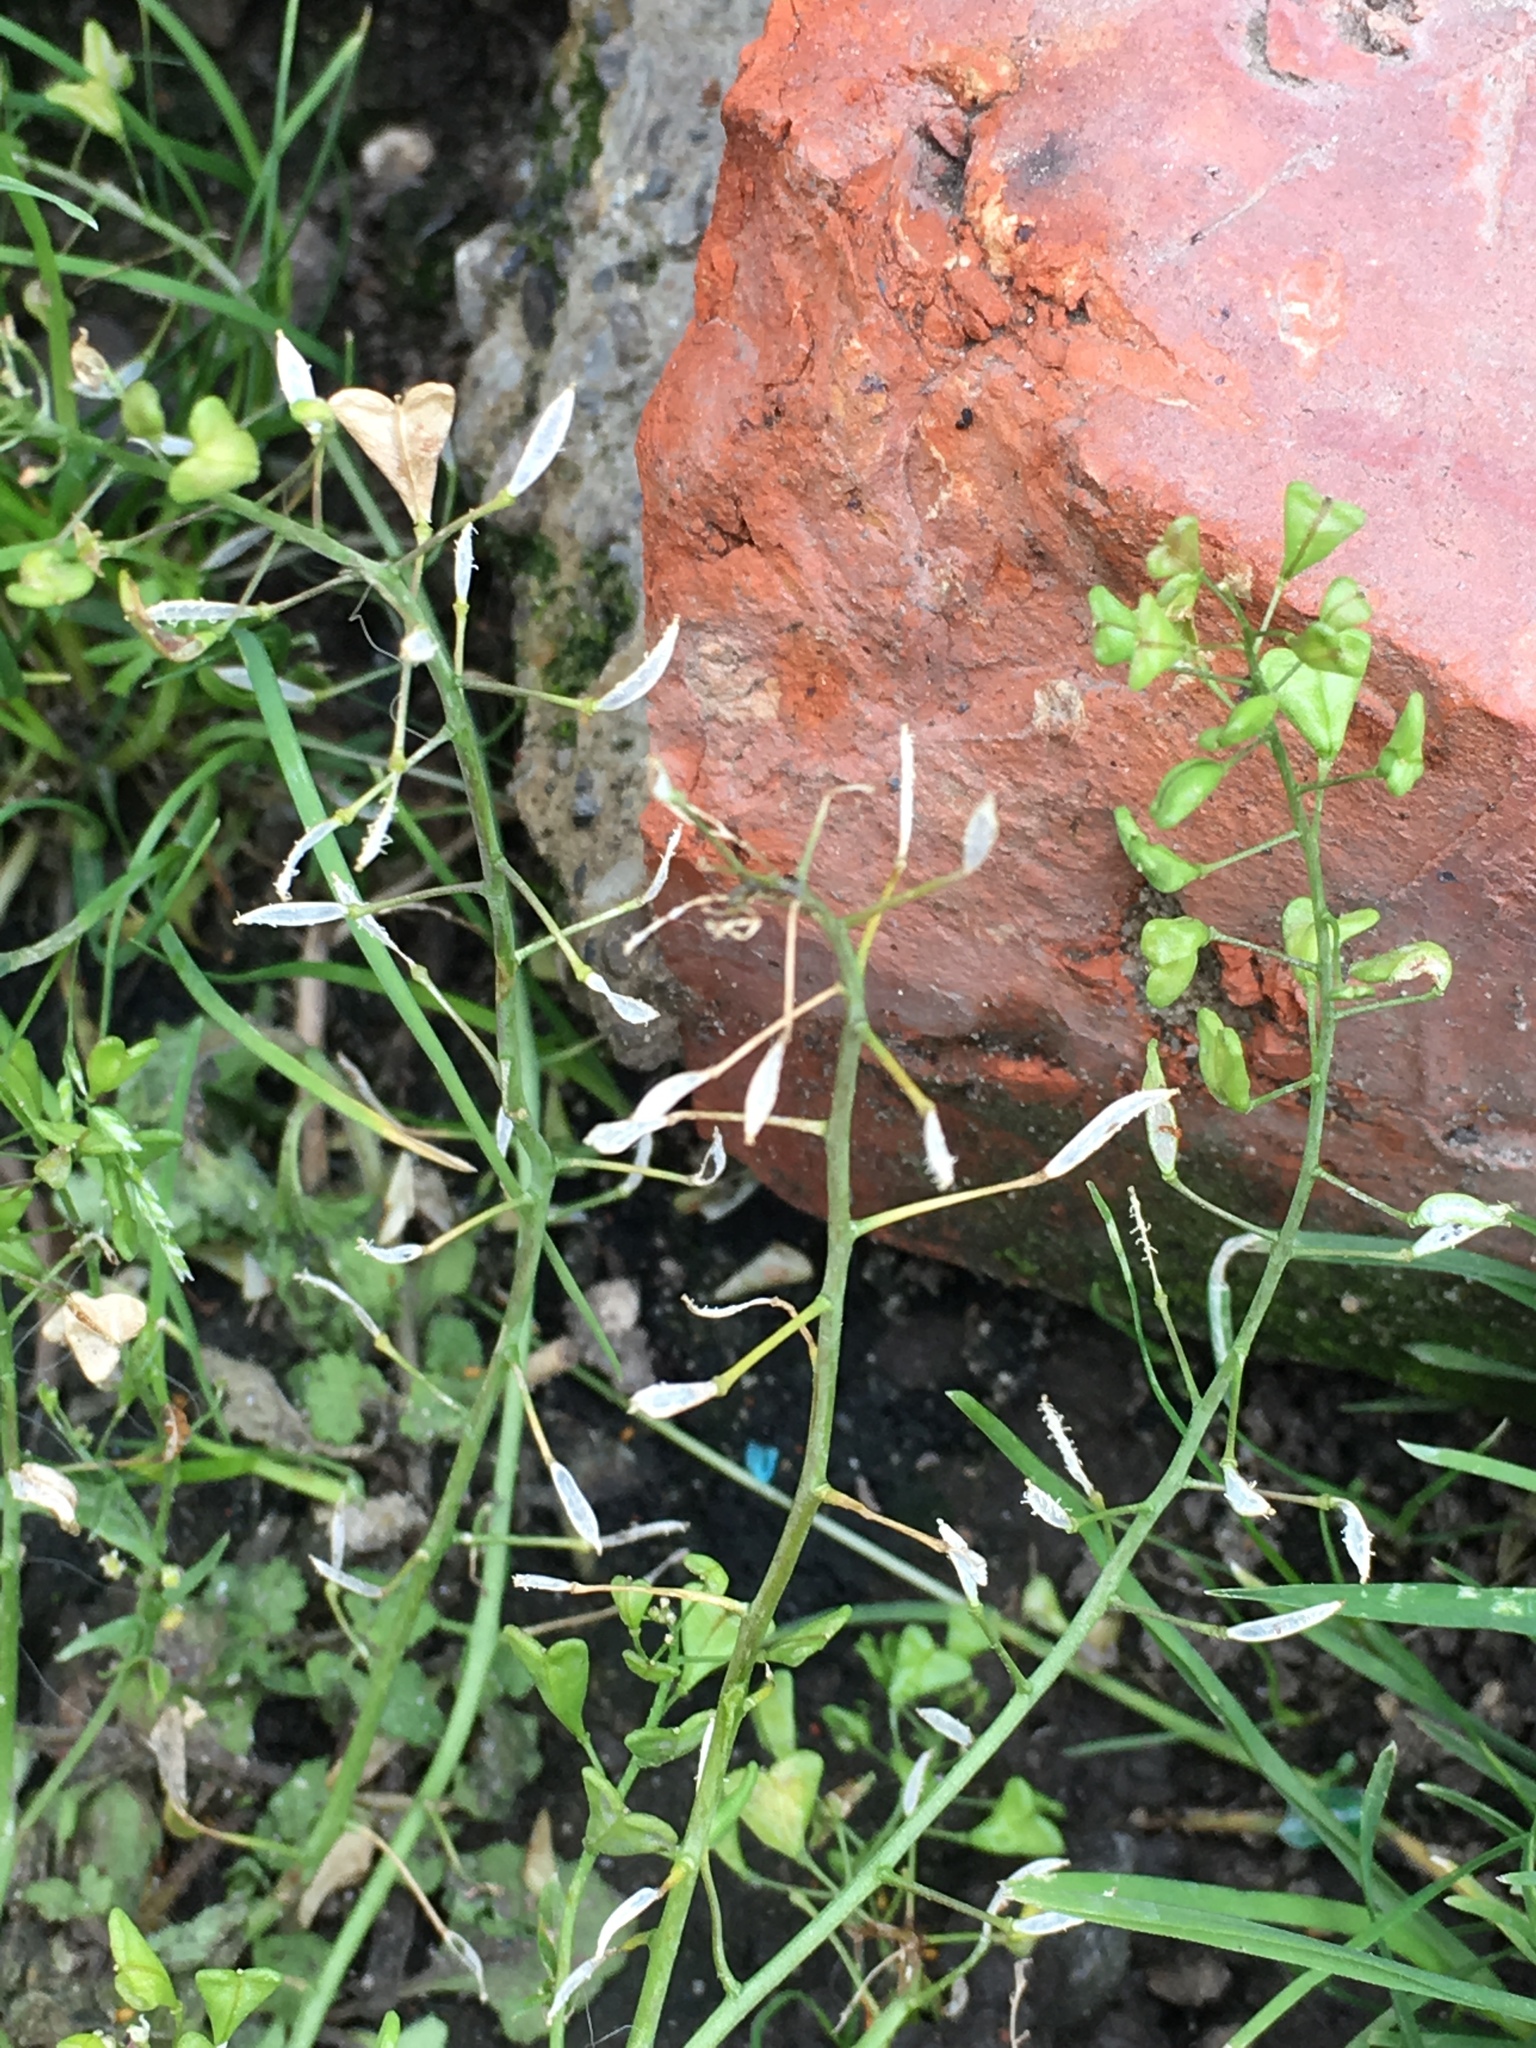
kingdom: Plantae
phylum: Tracheophyta
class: Magnoliopsida
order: Brassicales
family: Brassicaceae
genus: Capsella
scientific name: Capsella bursa-pastoris
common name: Shepherd's purse
